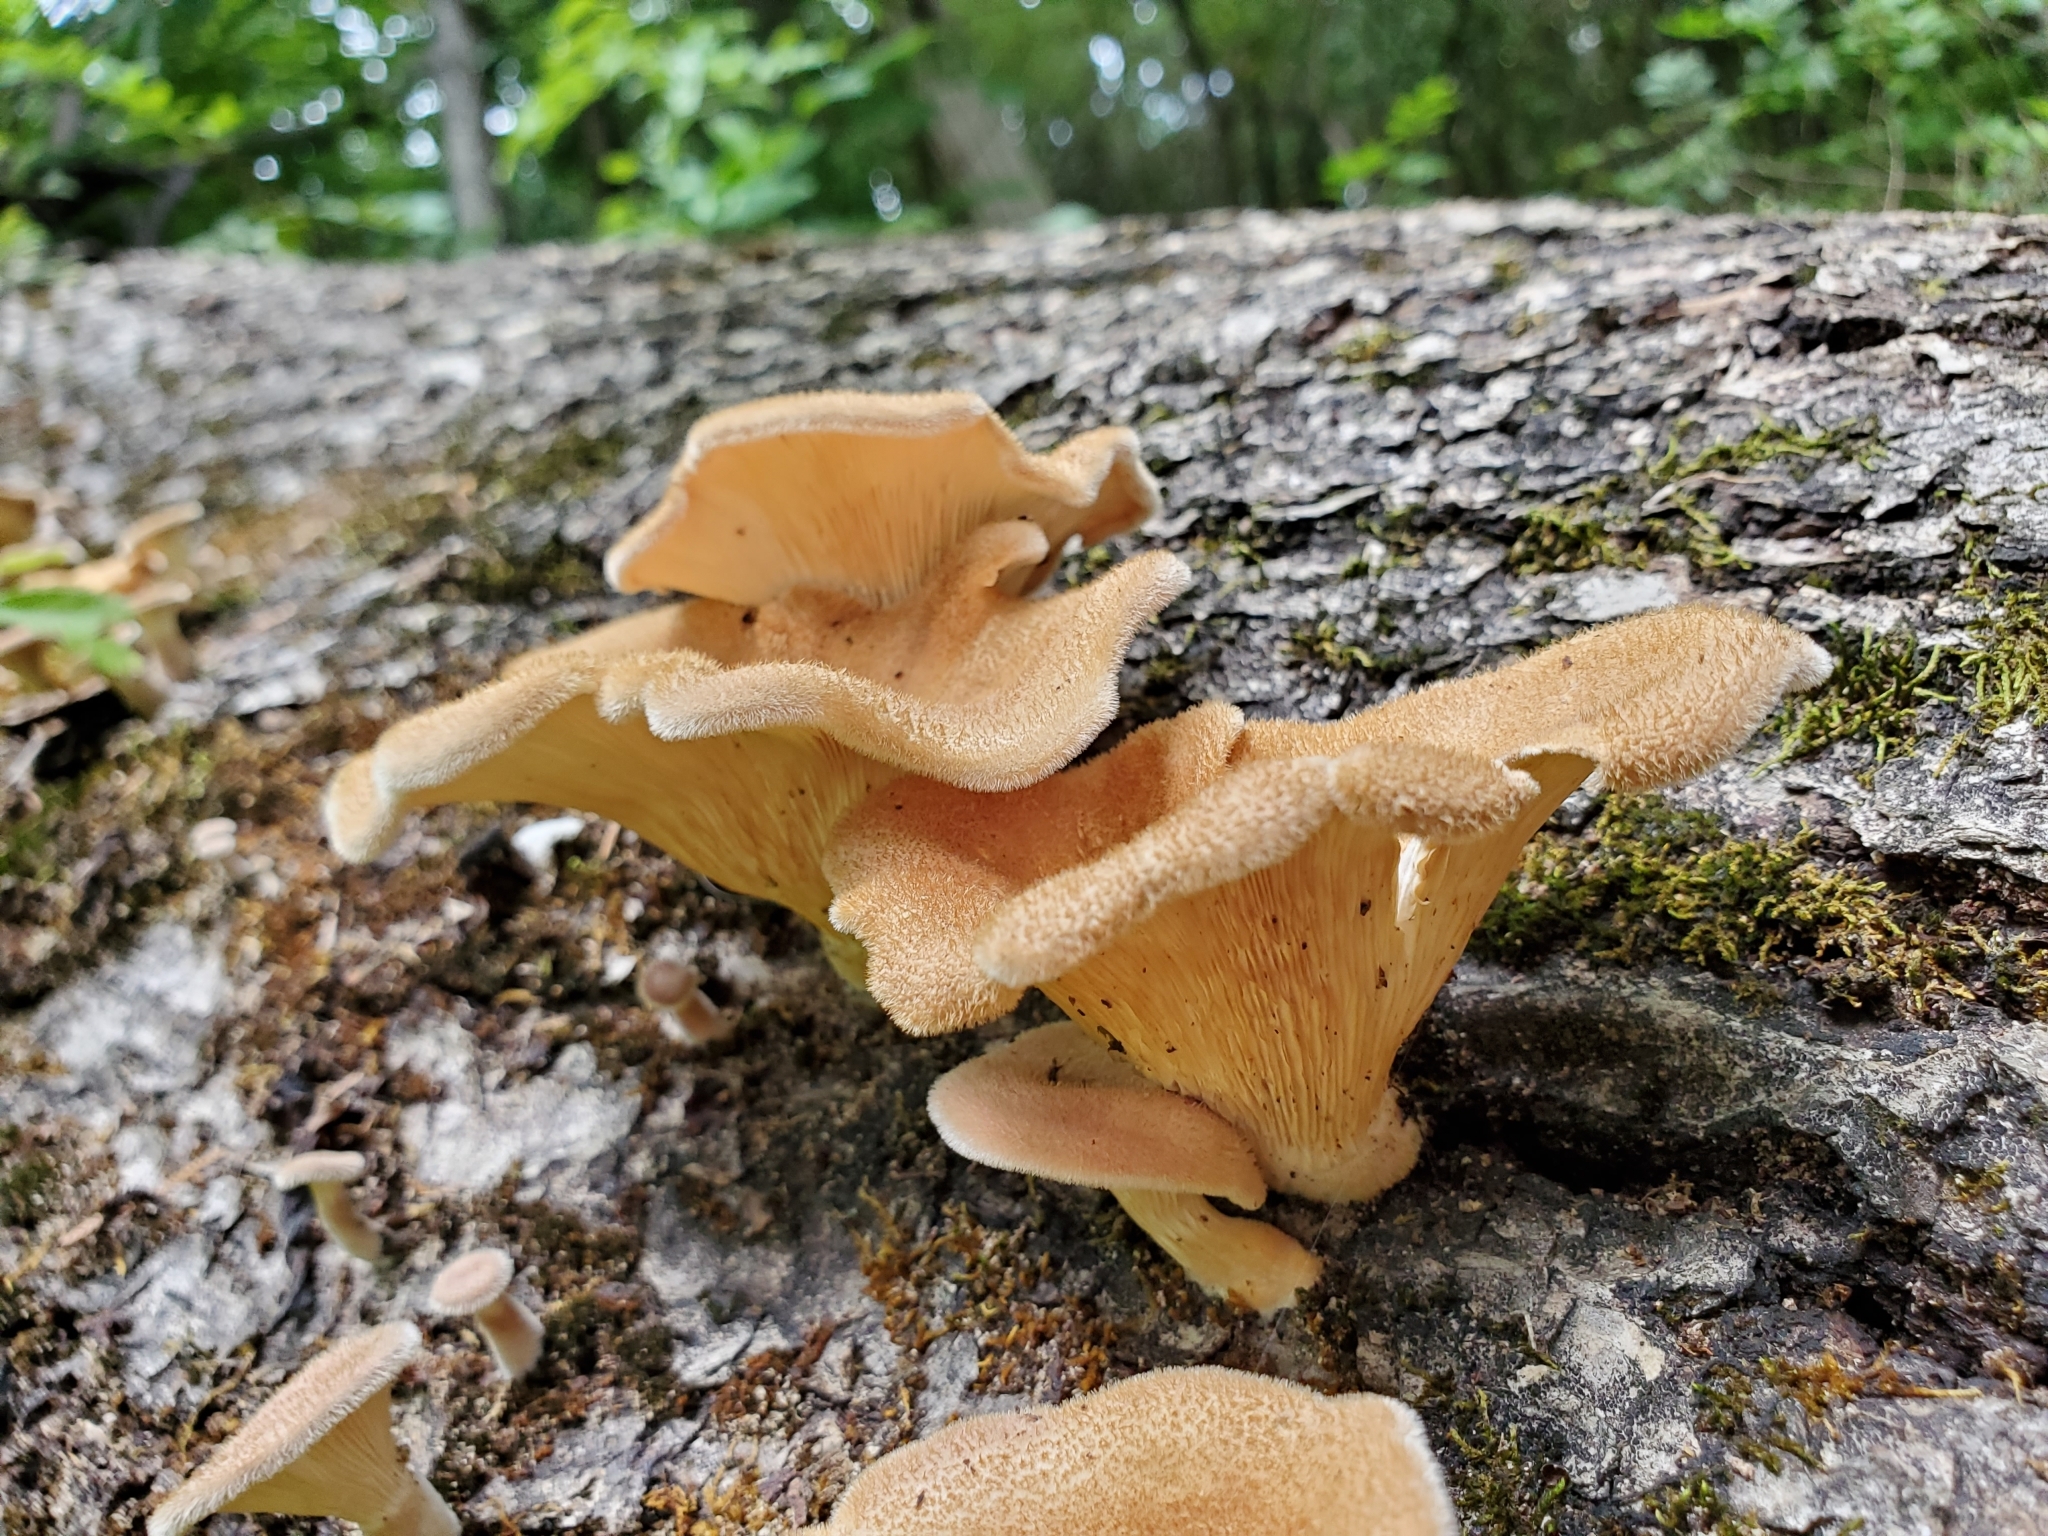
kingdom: Fungi
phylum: Basidiomycota
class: Agaricomycetes
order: Polyporales
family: Panaceae
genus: Panus
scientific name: Panus neostrigosus
